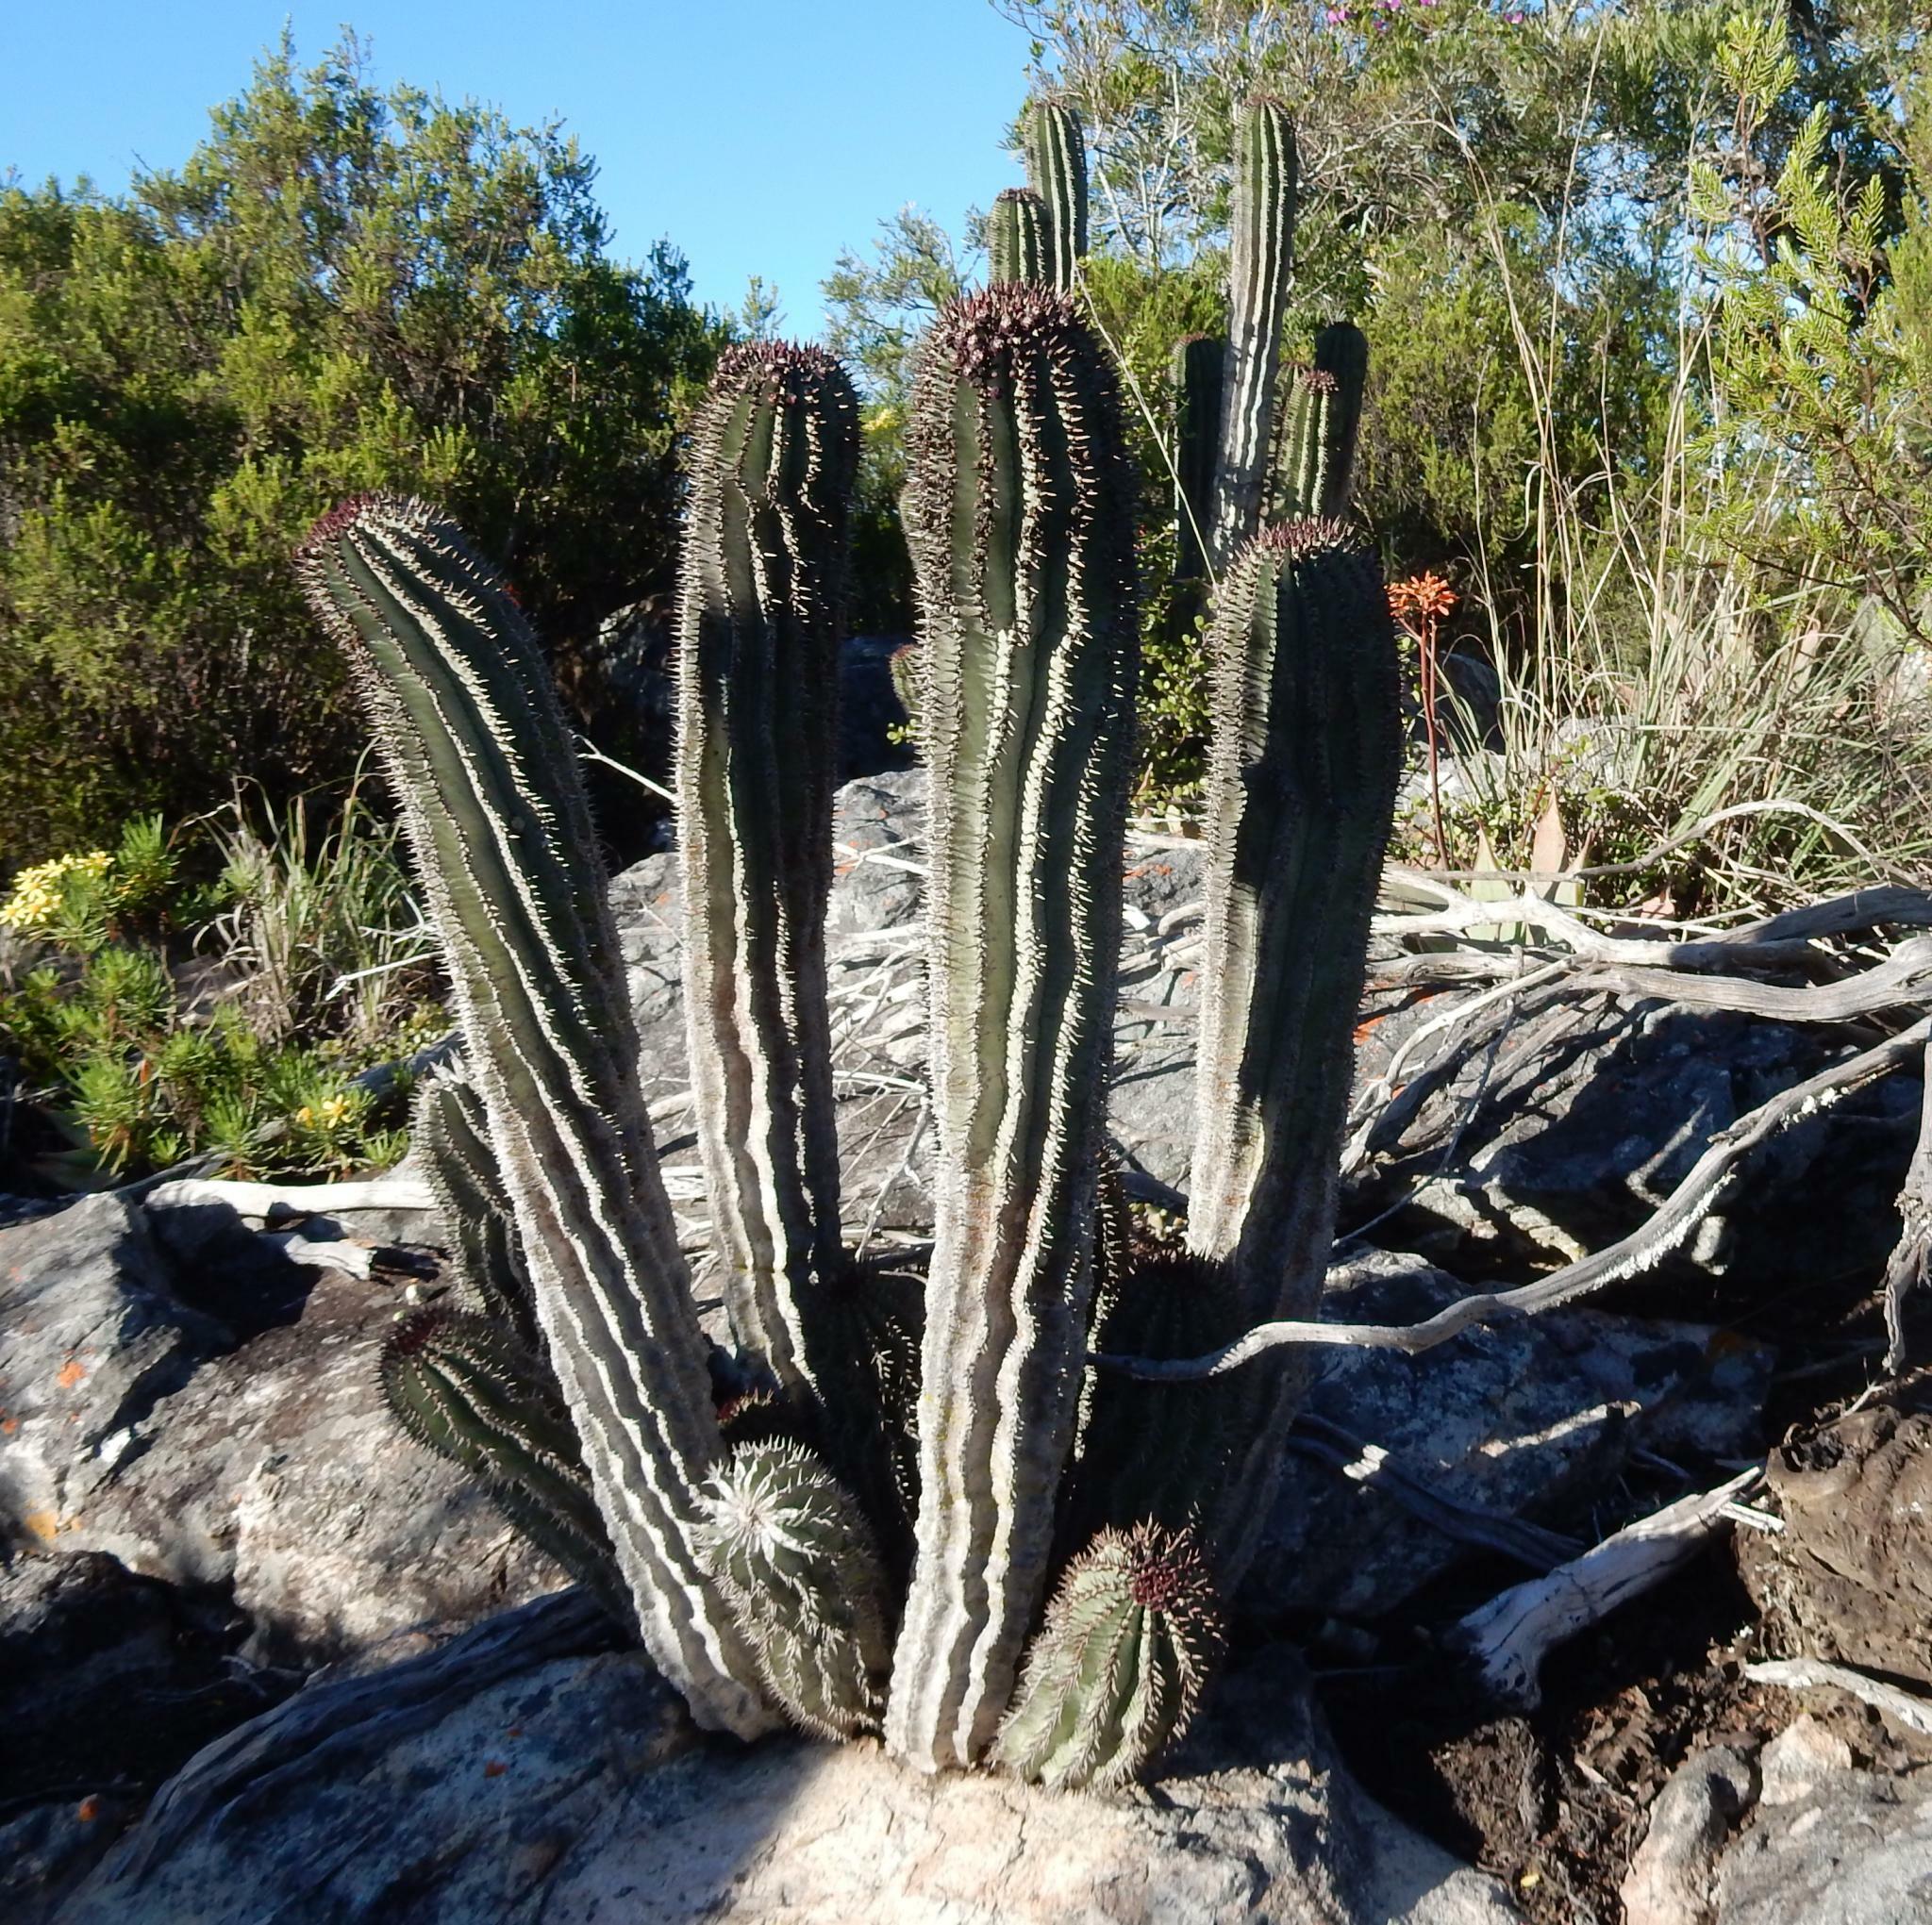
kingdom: Plantae
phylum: Tracheophyta
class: Magnoliopsida
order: Malpighiales
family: Euphorbiaceae
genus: Euphorbia
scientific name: Euphorbia polygona
